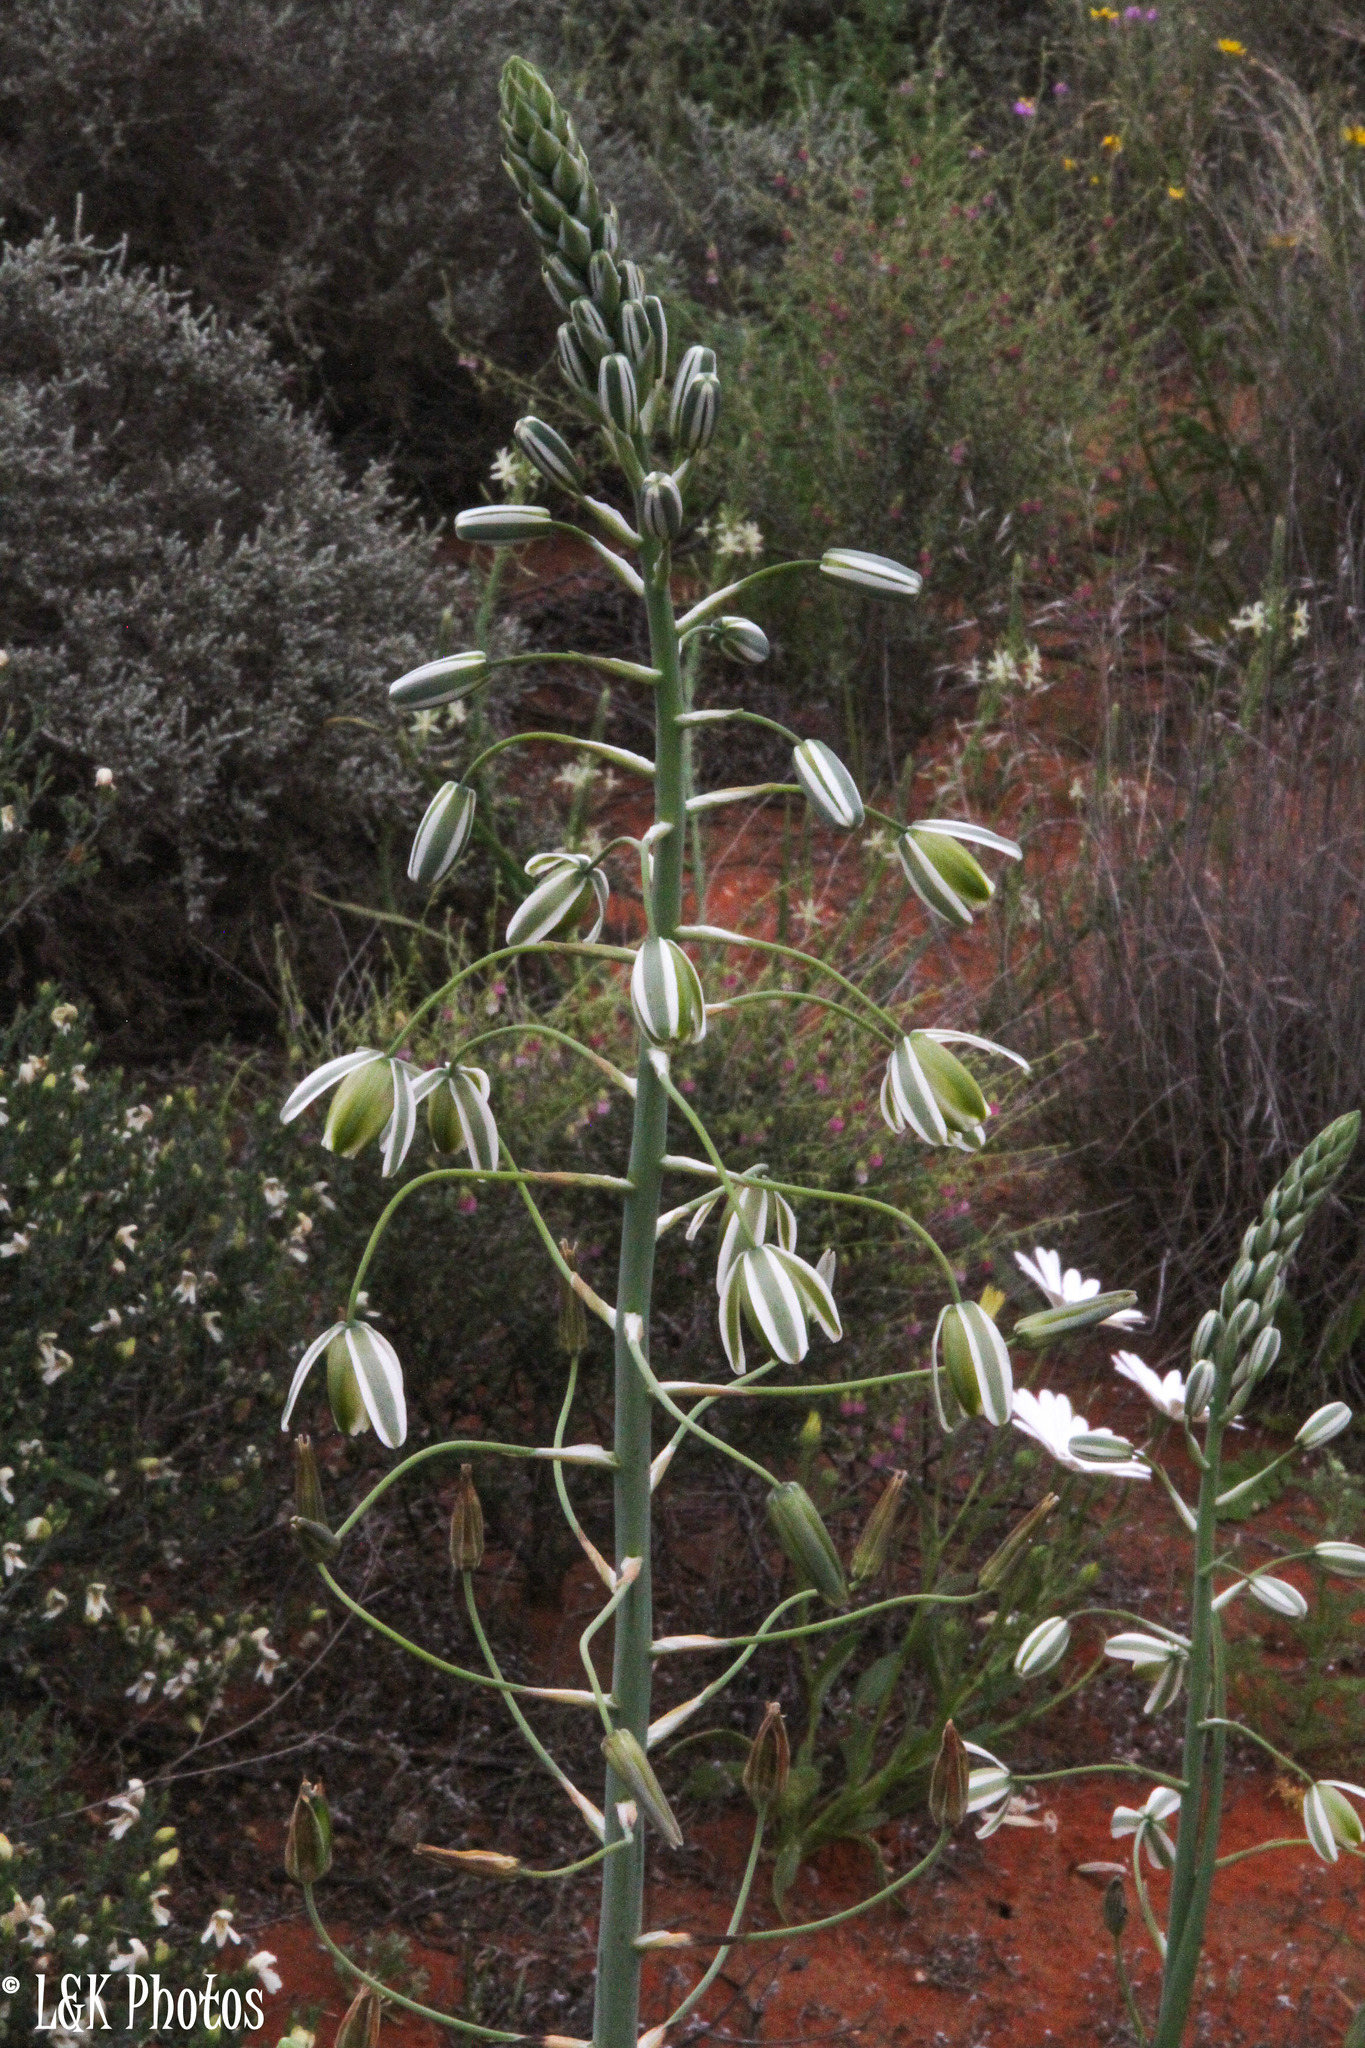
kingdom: Plantae
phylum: Tracheophyta
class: Liliopsida
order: Asparagales
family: Asparagaceae
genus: Albuca
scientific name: Albuca canadensis
